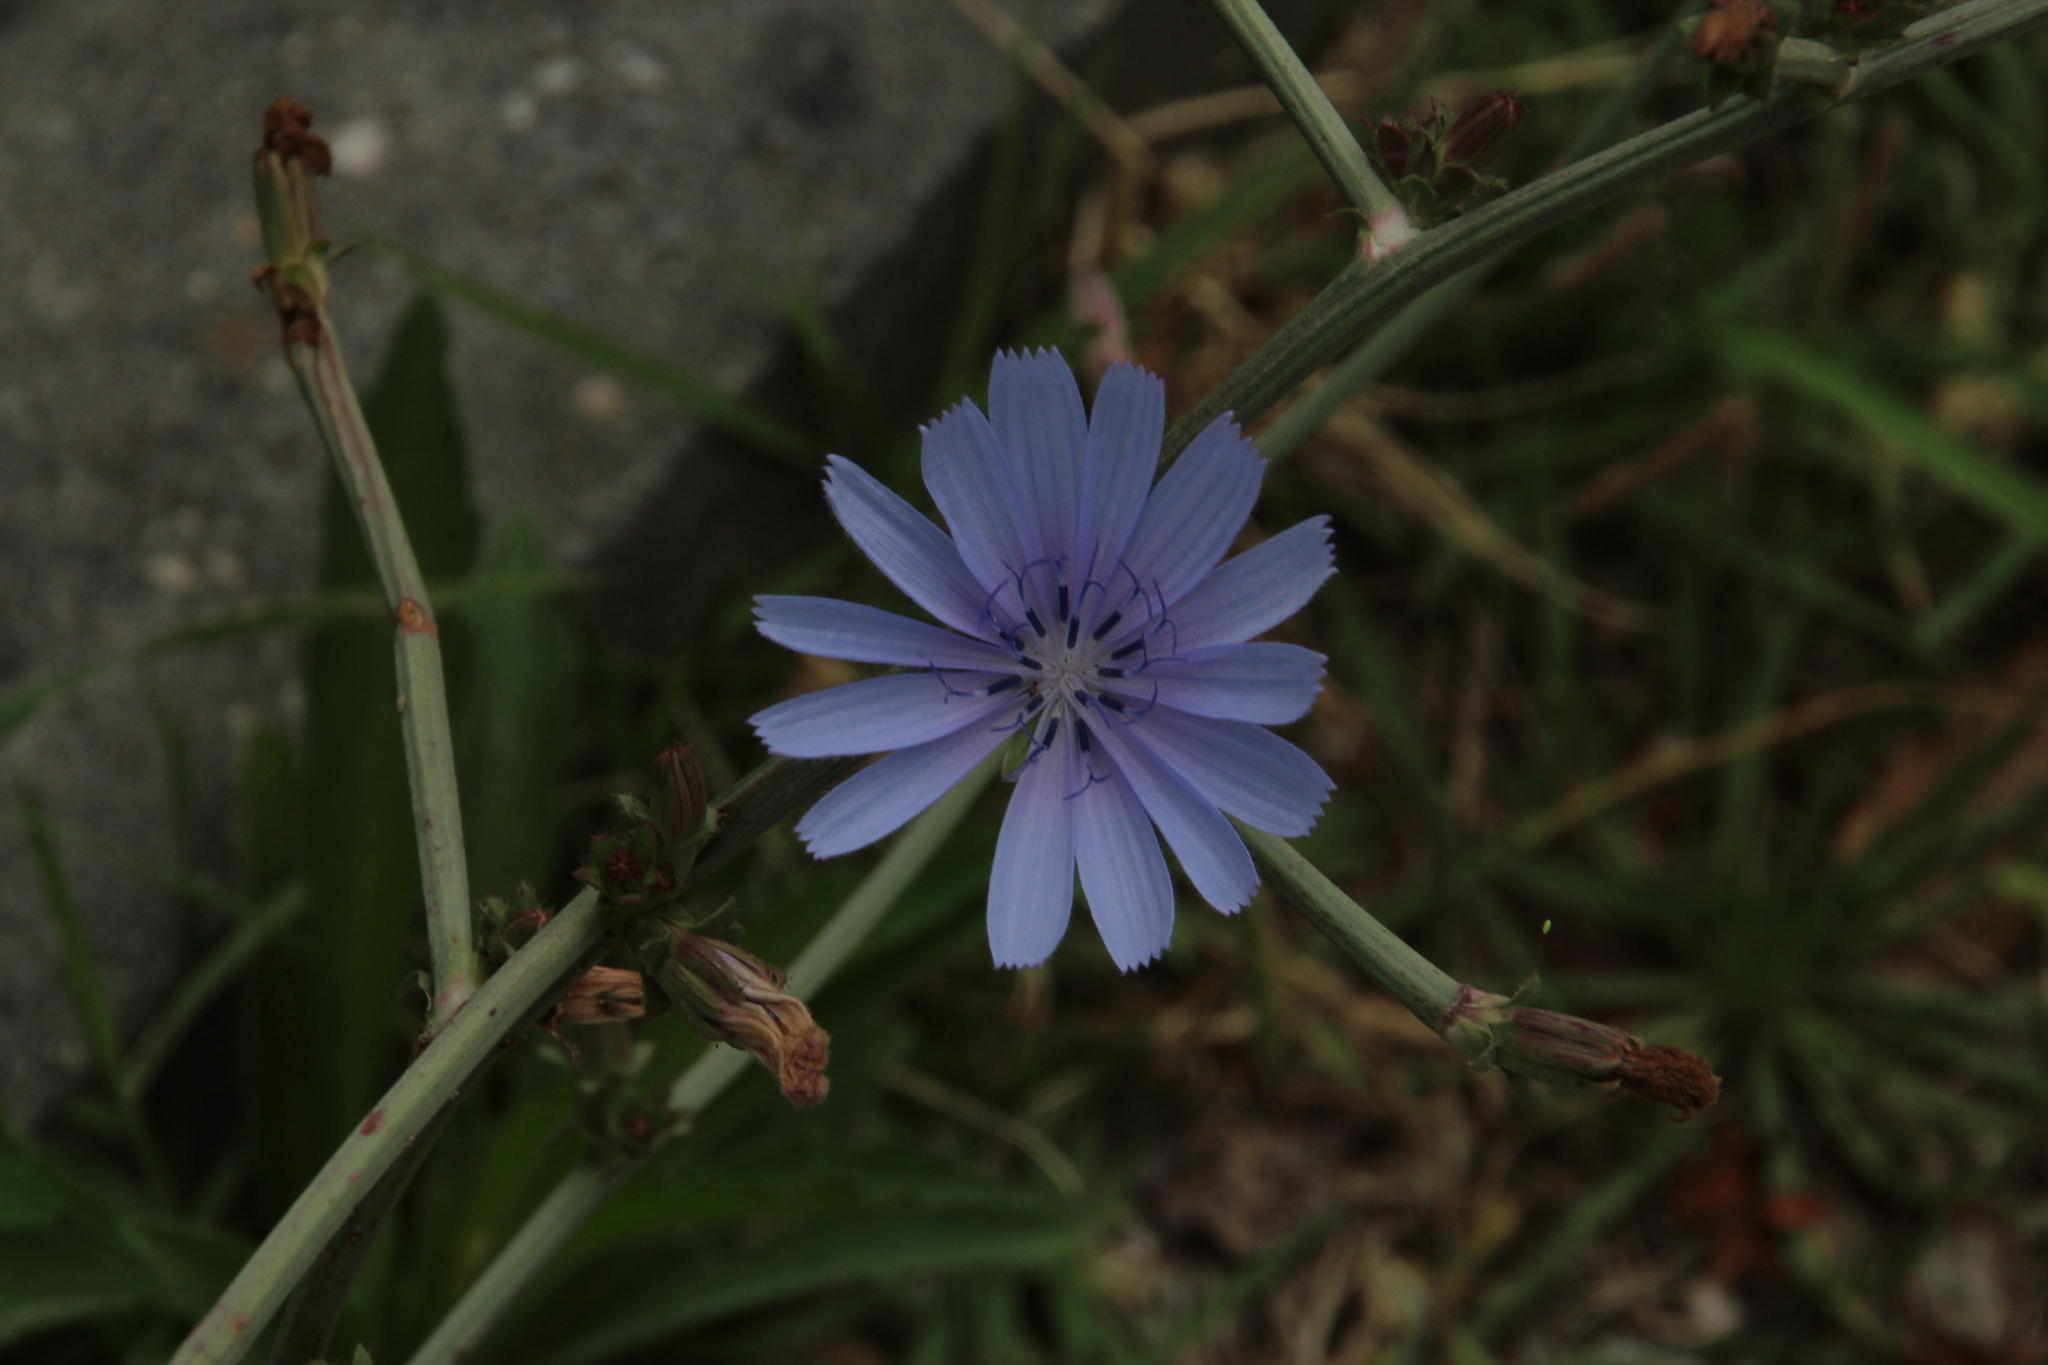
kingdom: Plantae
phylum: Tracheophyta
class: Magnoliopsida
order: Asterales
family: Asteraceae
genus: Cichorium
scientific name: Cichorium intybus
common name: Chicory
